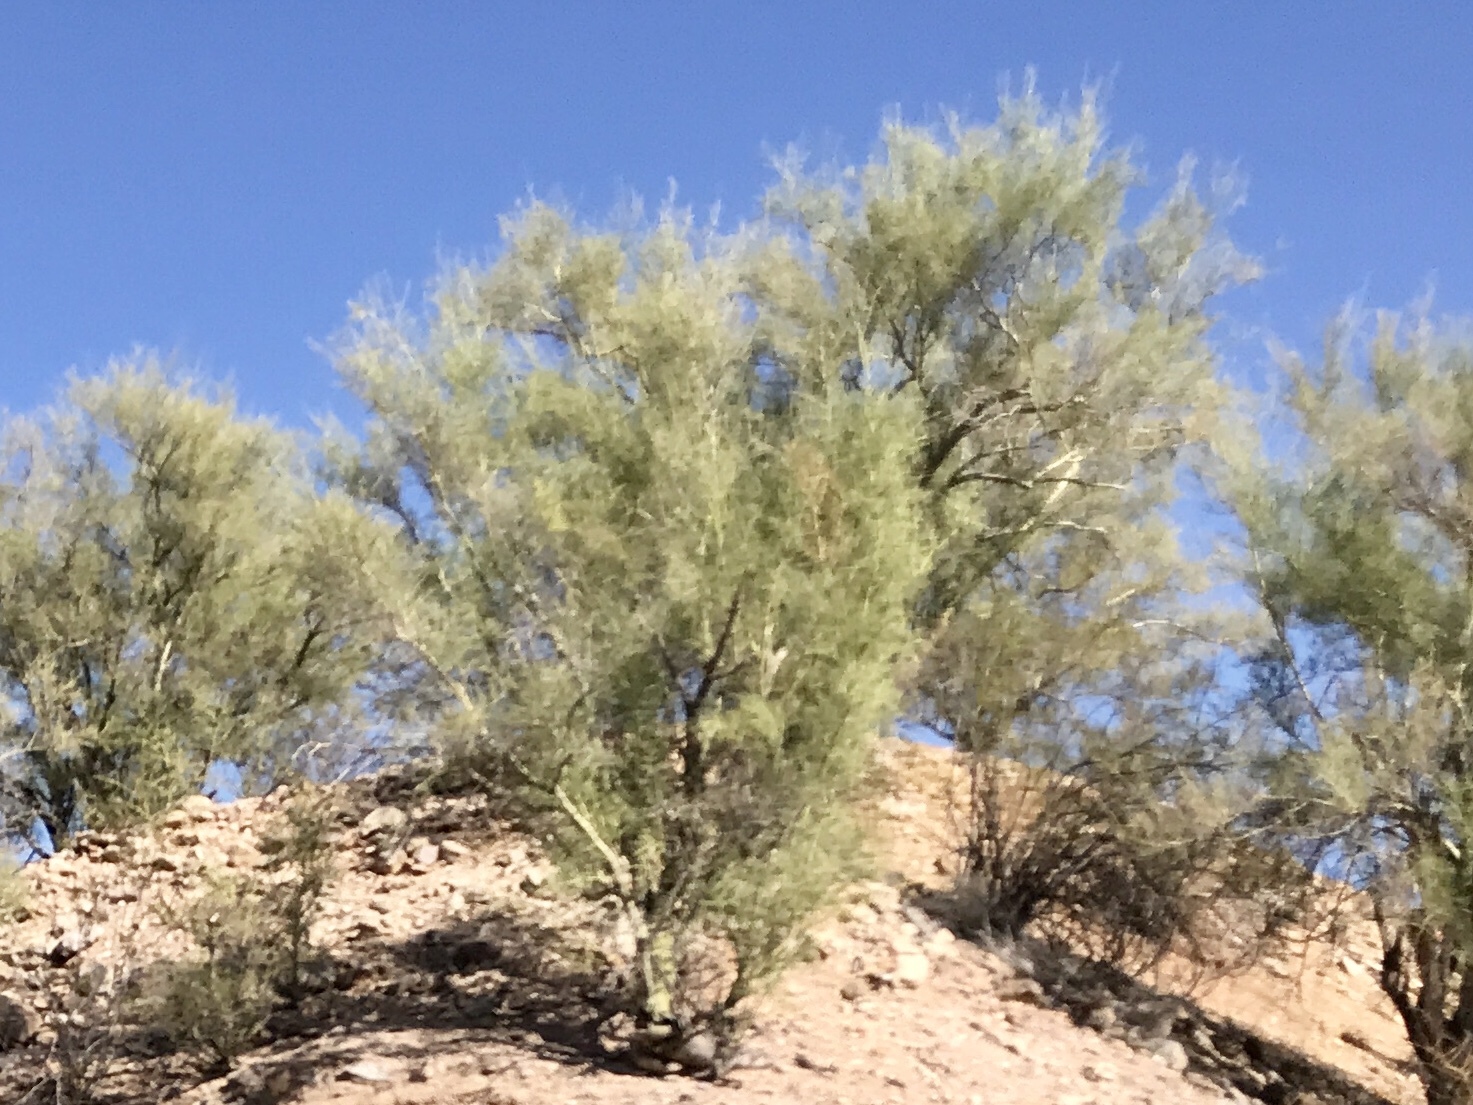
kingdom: Plantae
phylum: Tracheophyta
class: Magnoliopsida
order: Fabales
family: Fabaceae
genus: Parkinsonia
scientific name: Parkinsonia microphylla
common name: Yellow paloverde
